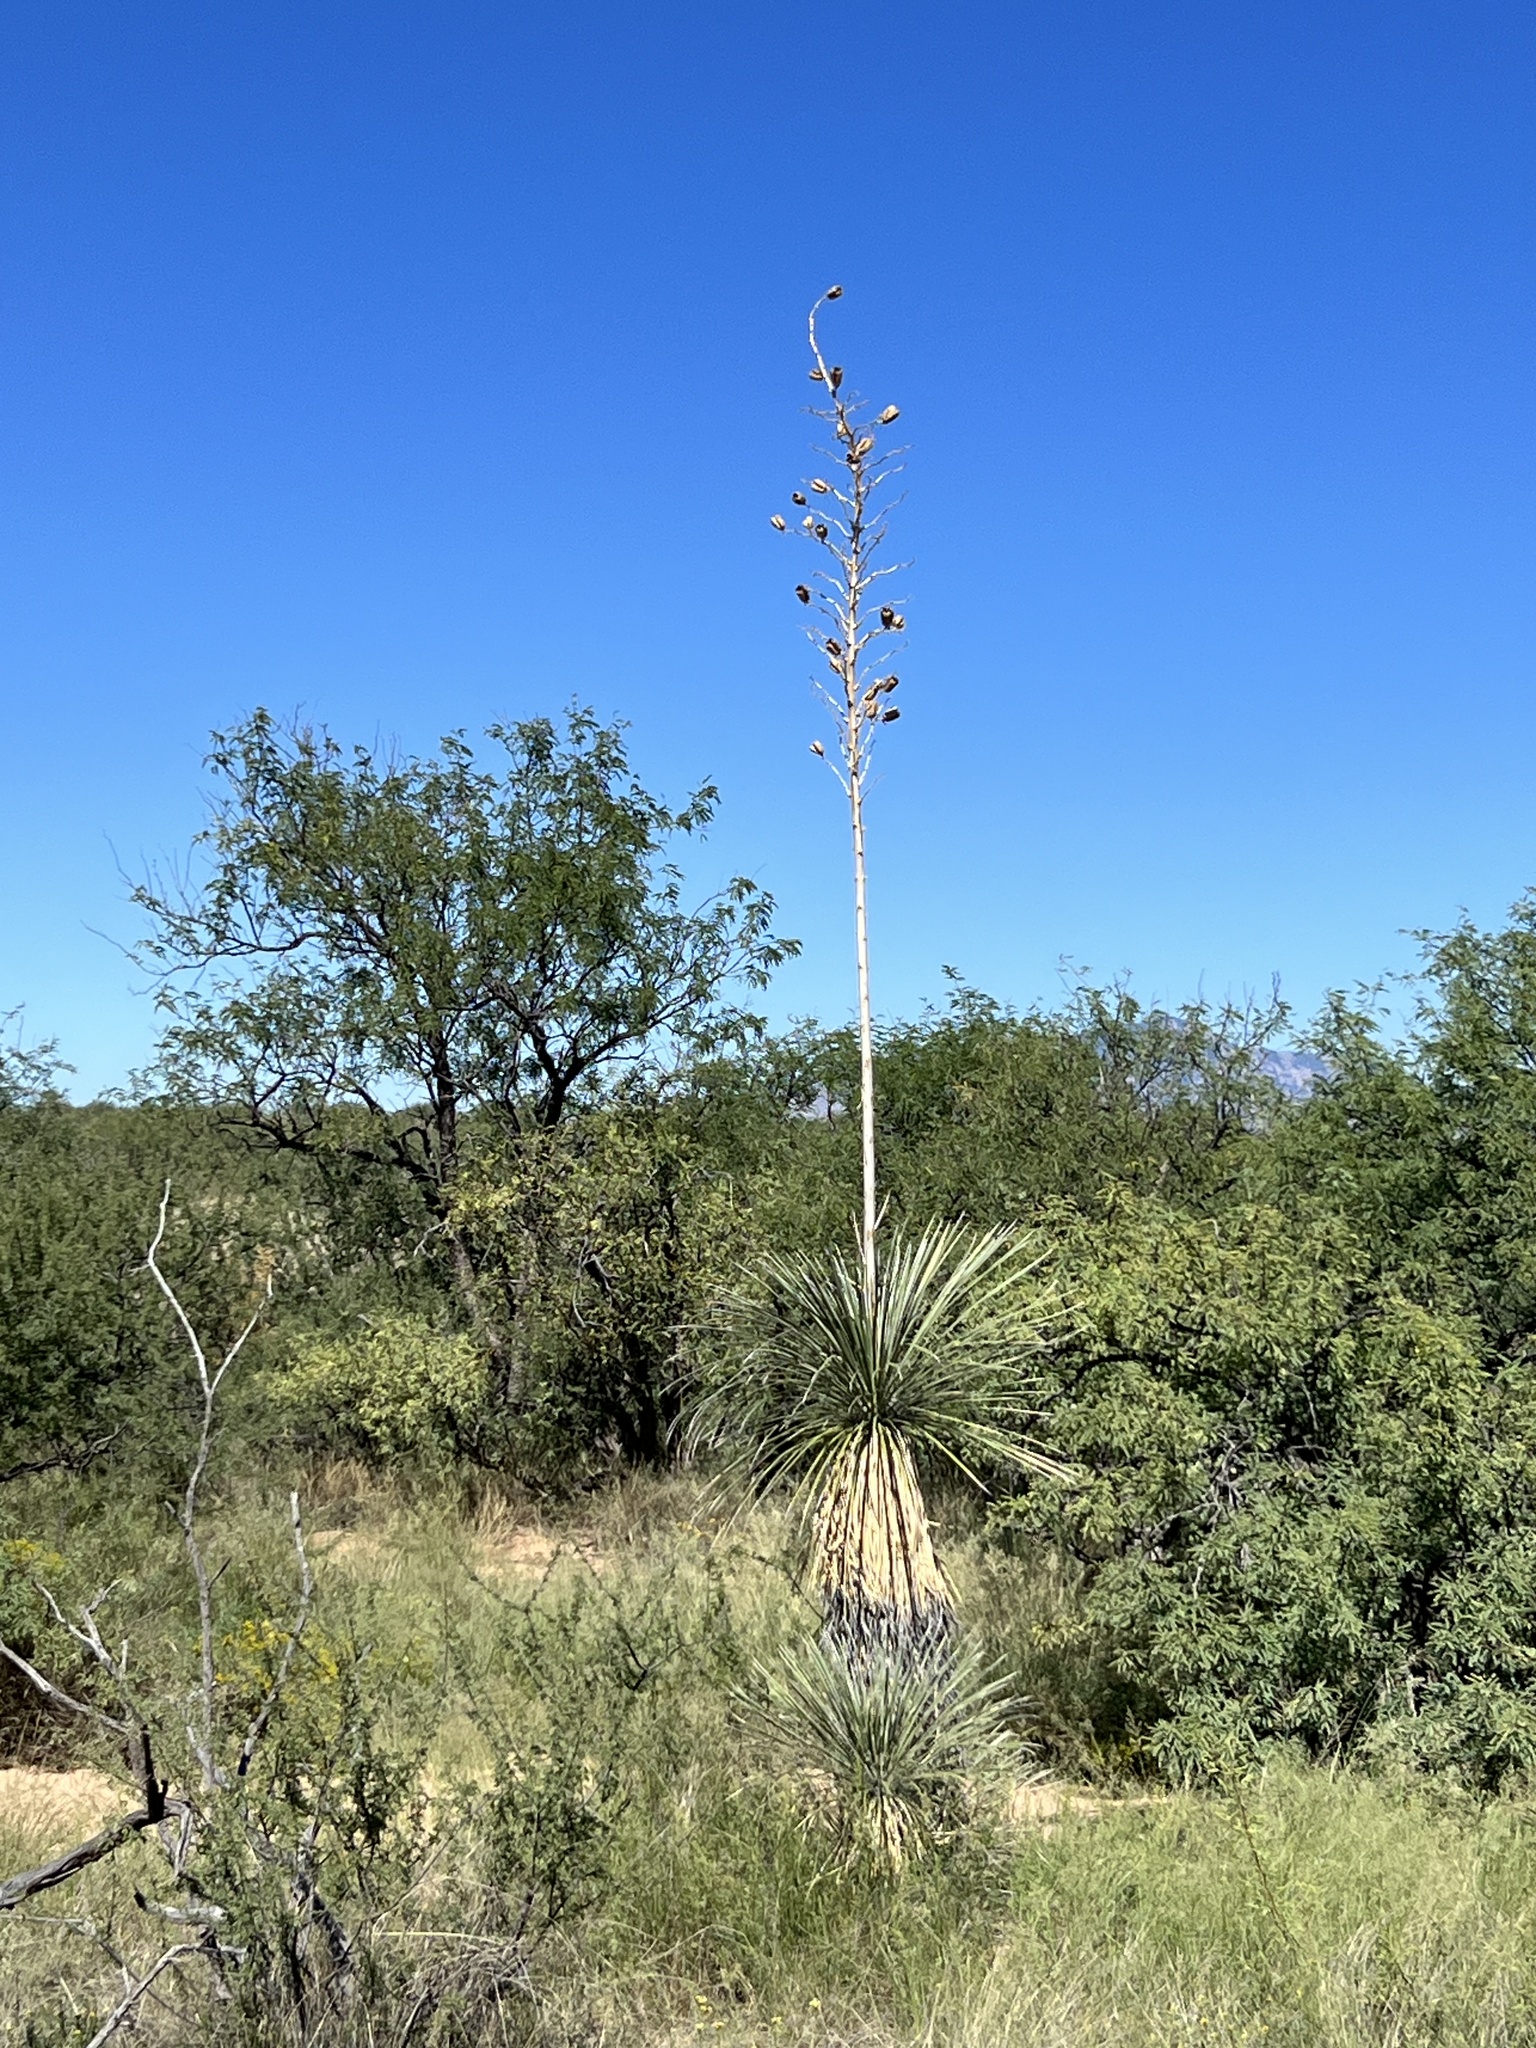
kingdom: Plantae
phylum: Tracheophyta
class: Liliopsida
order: Asparagales
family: Asparagaceae
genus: Yucca
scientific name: Yucca elata
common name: Palmella
